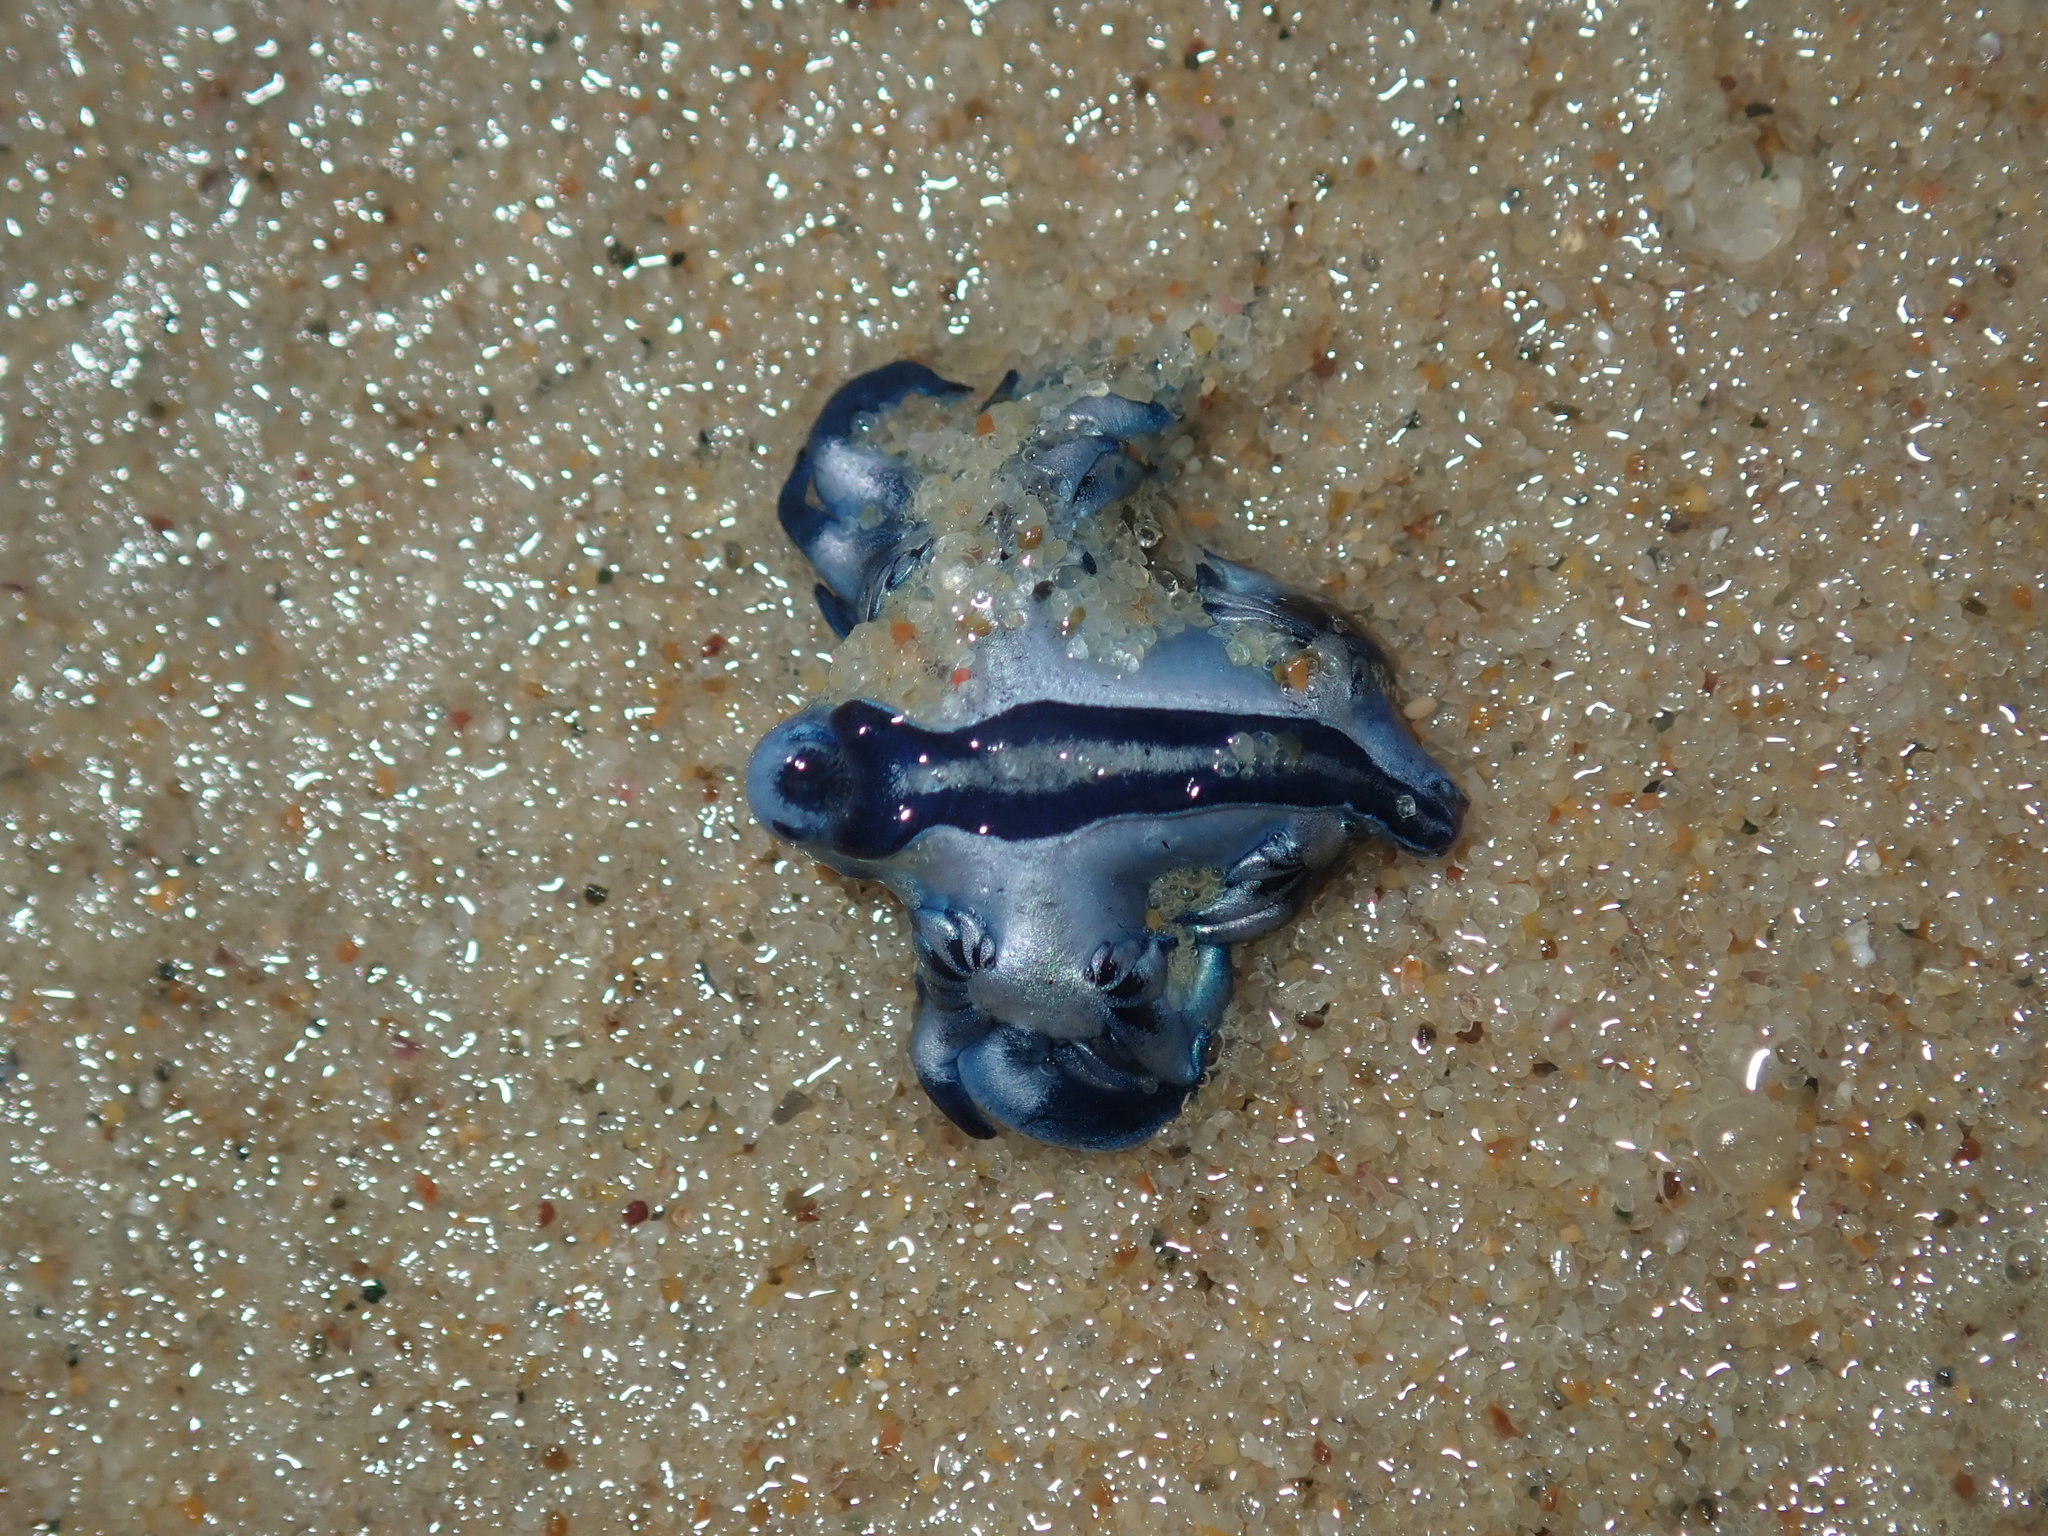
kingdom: Animalia
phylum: Mollusca
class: Gastropoda
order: Nudibranchia
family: Glaucidae
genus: Glaucus
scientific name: Glaucus atlanticus
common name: Purple ocean slug
